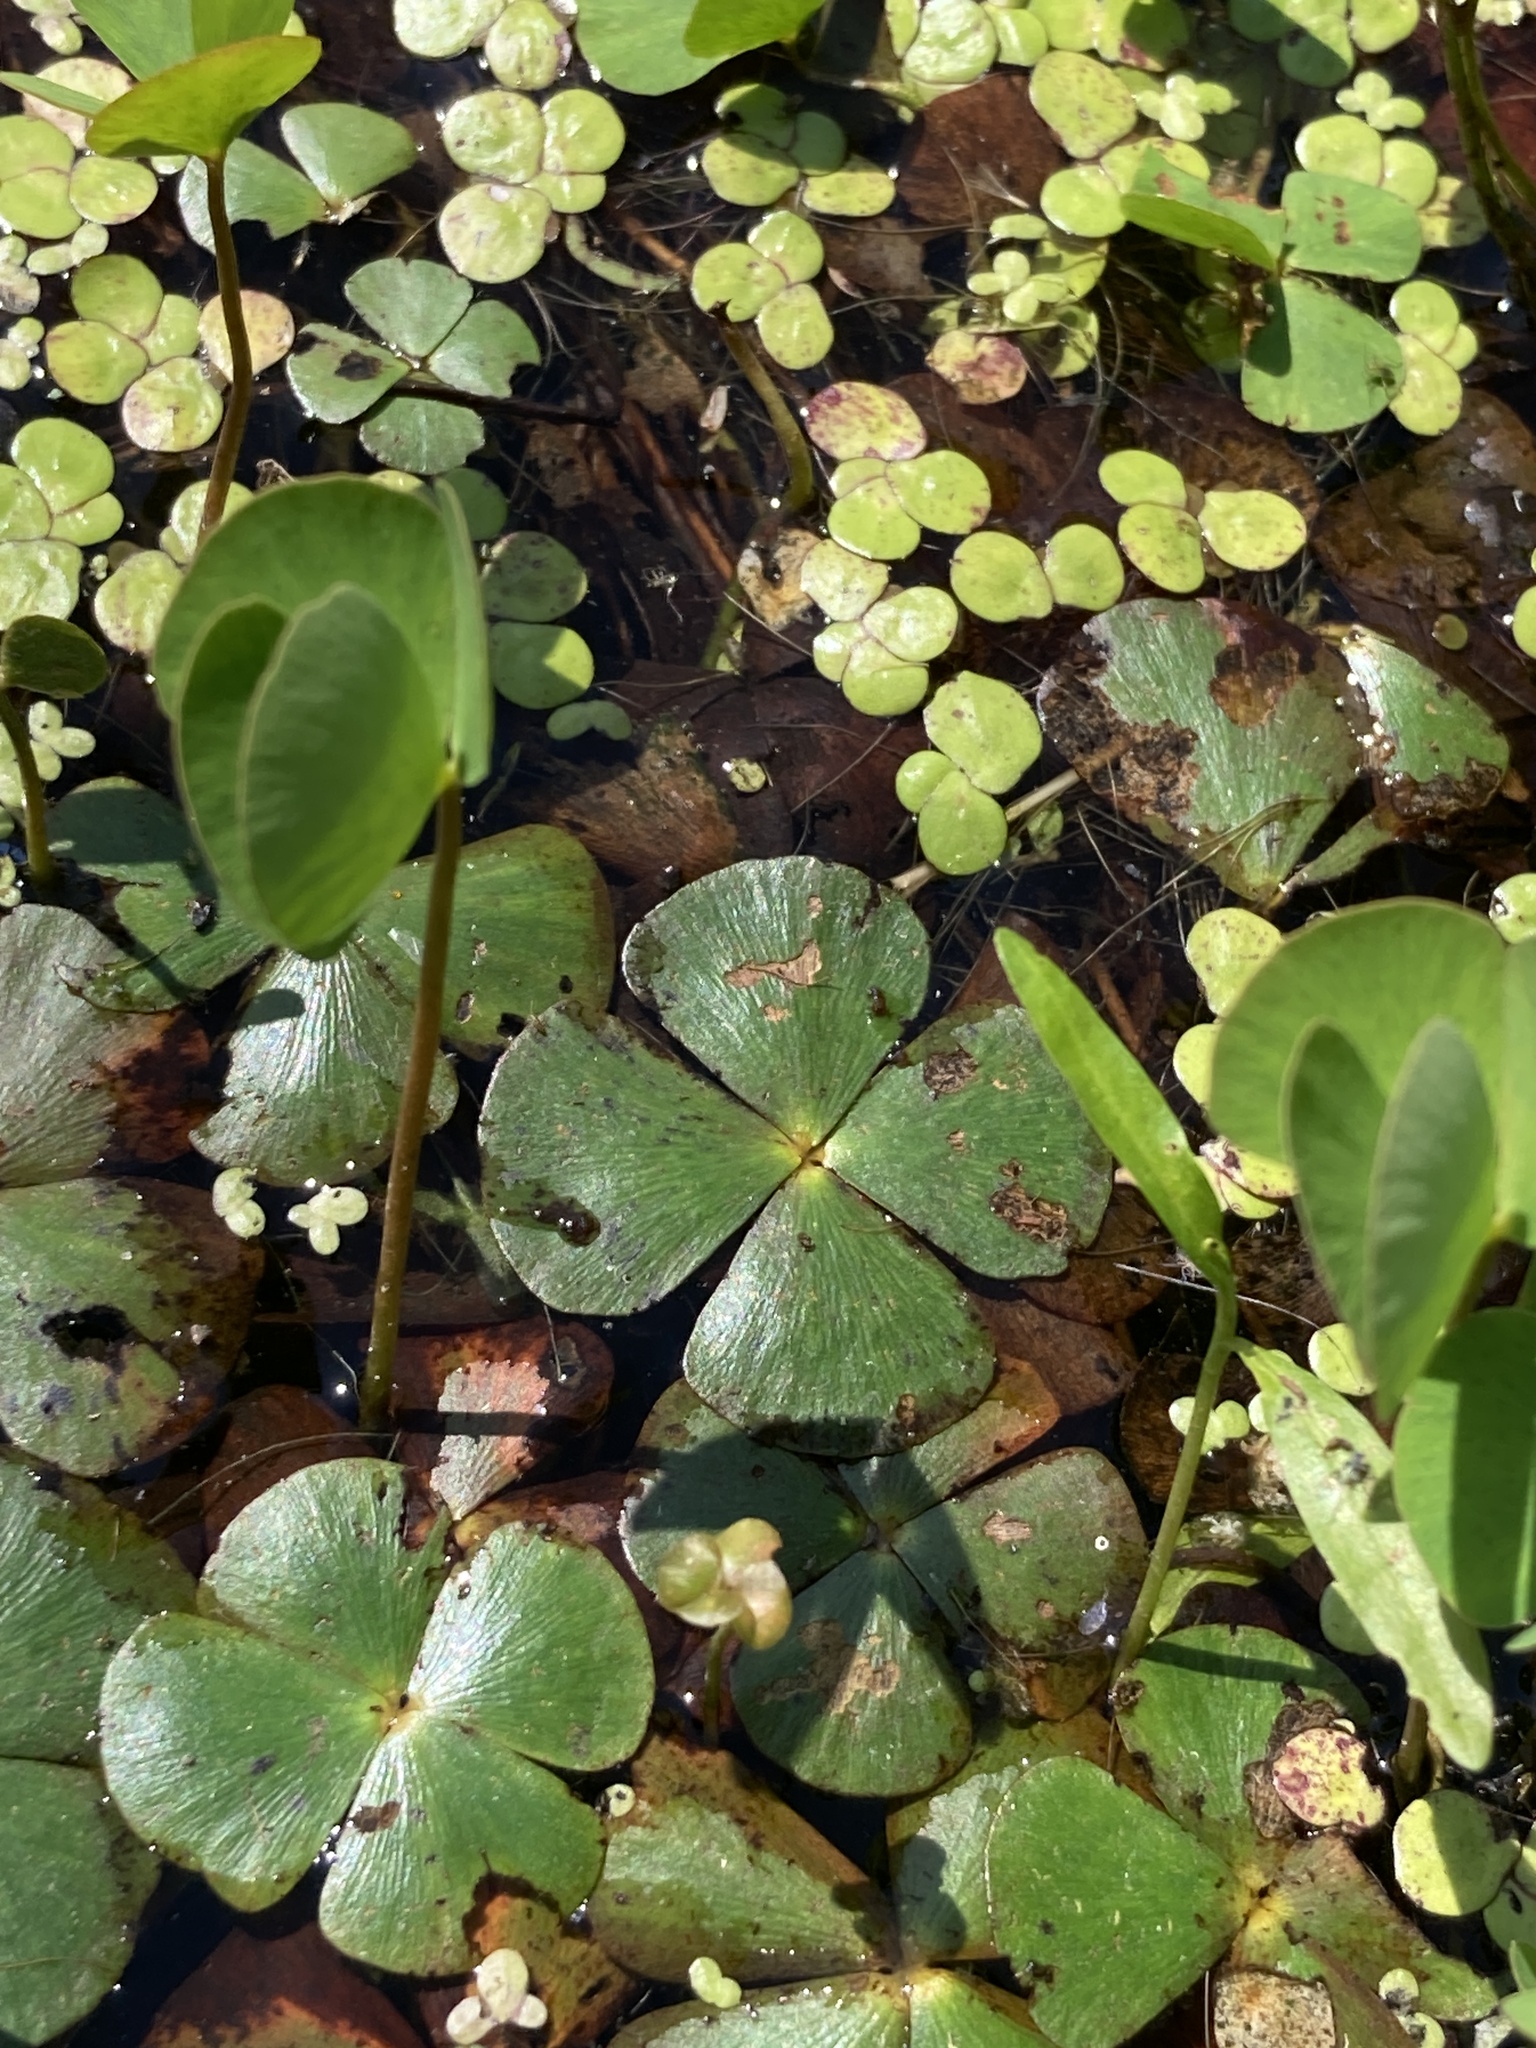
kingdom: Plantae
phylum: Tracheophyta
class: Polypodiopsida
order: Salviniales
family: Marsileaceae
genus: Marsilea
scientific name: Marsilea quadrifolia
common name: Water shamrock
